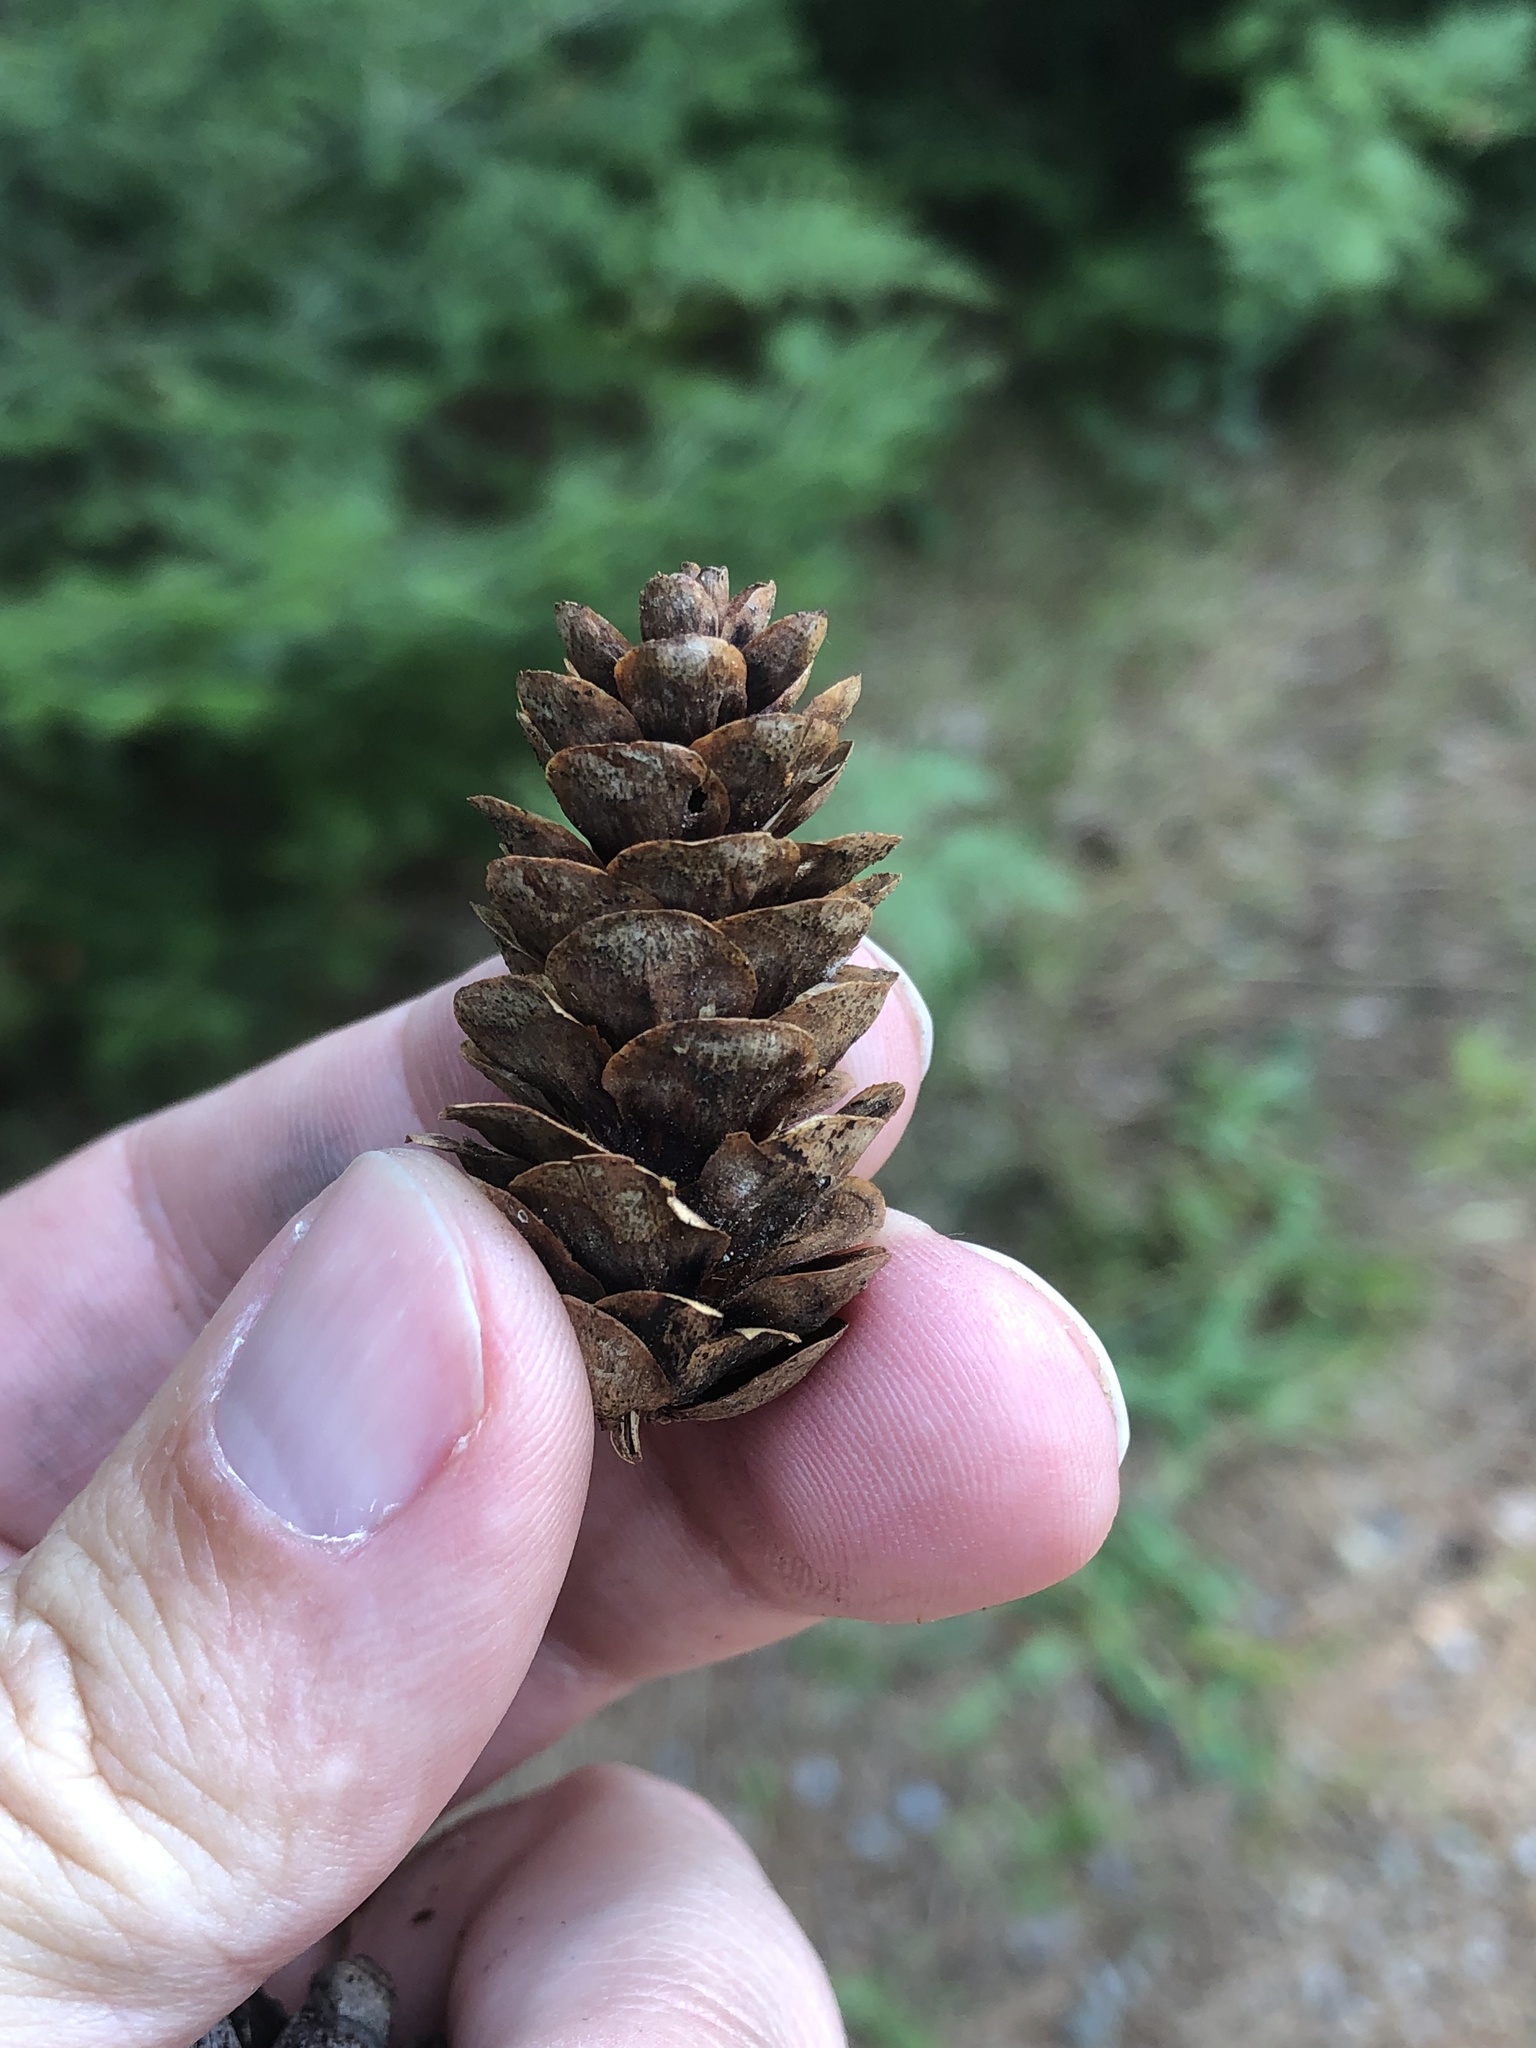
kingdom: Plantae
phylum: Tracheophyta
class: Pinopsida
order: Pinales
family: Pinaceae
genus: Picea
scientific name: Picea glauca
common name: White spruce
